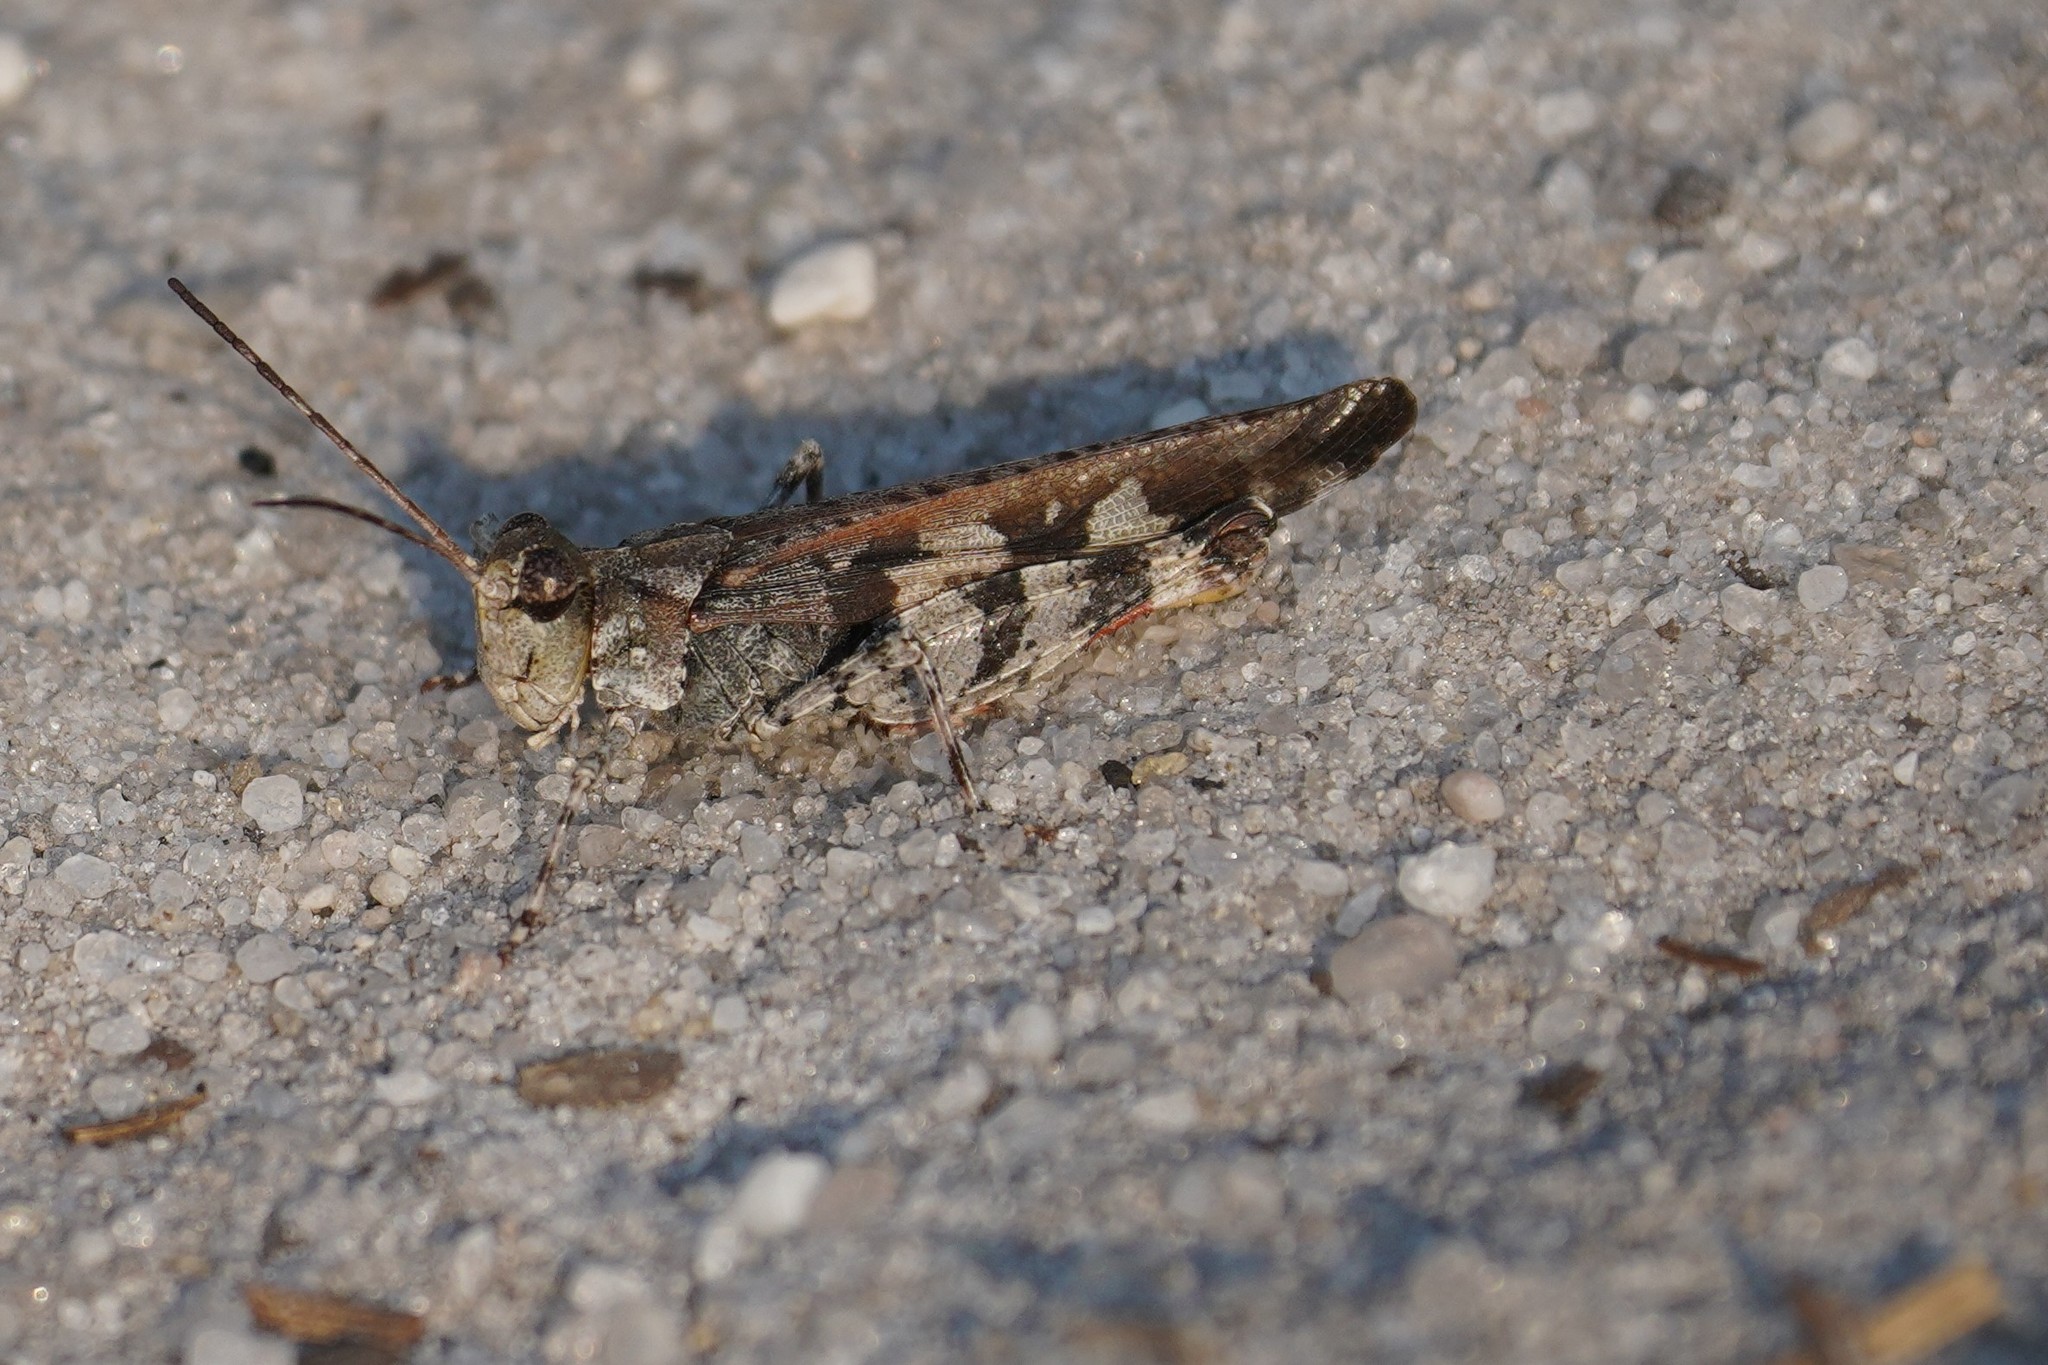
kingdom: Animalia
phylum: Arthropoda
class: Insecta
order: Orthoptera
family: Acrididae
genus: Spharagemon
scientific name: Spharagemon marmoratum
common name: Marbled grasshopper
